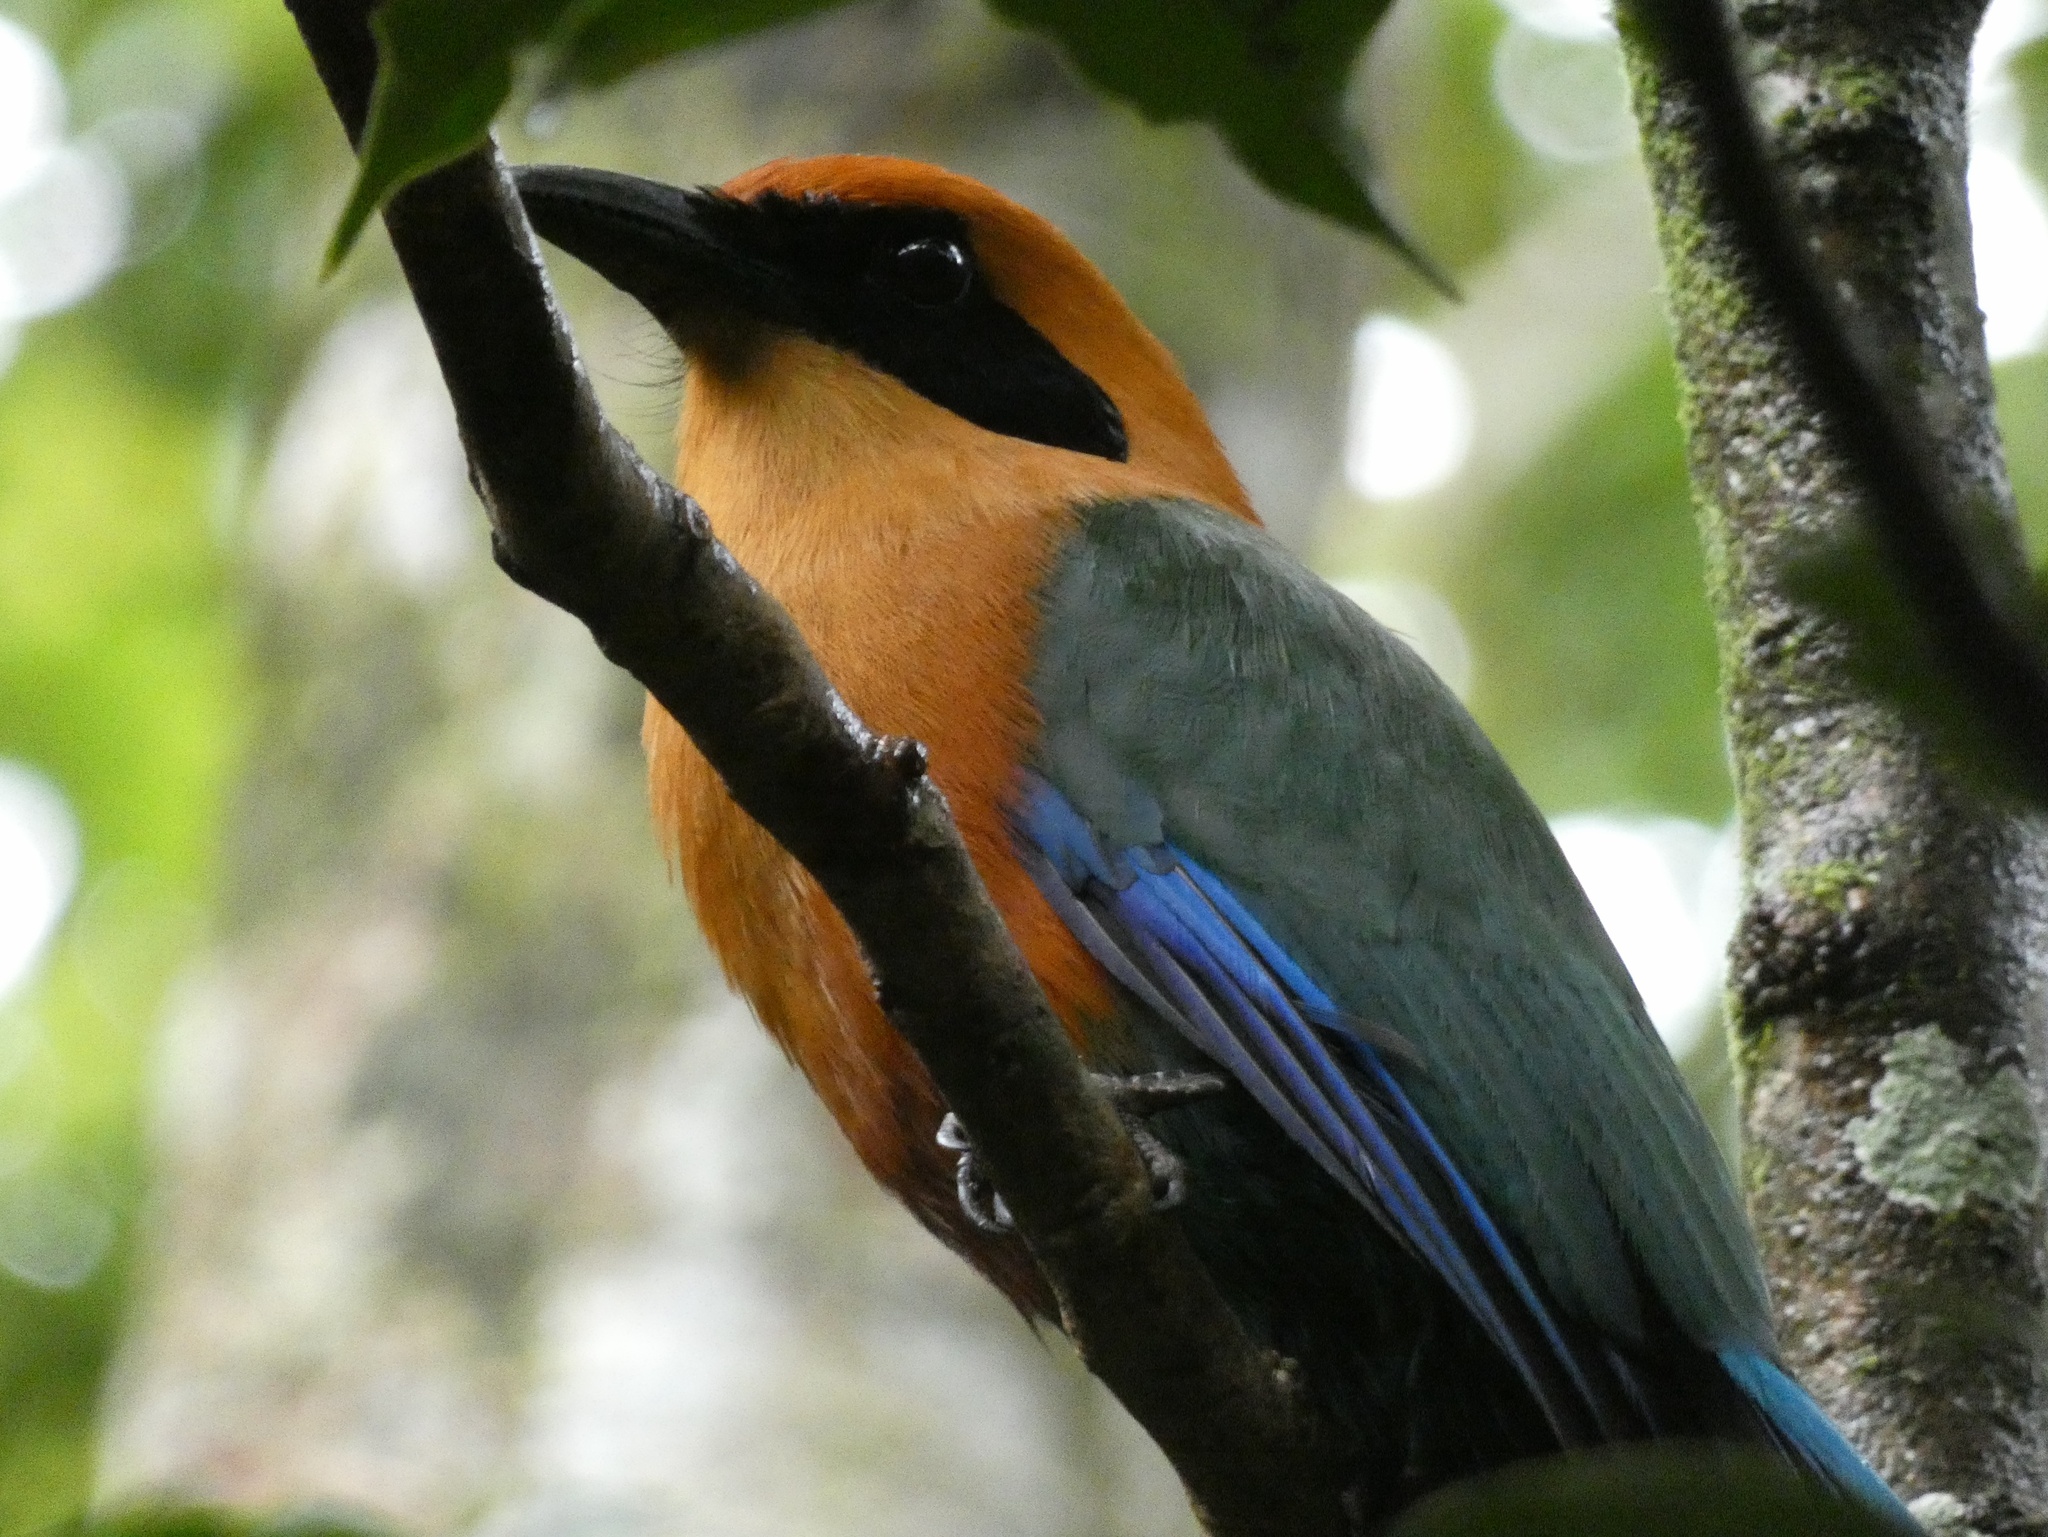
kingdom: Animalia
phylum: Chordata
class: Aves
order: Coraciiformes
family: Momotidae
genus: Baryphthengus
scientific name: Baryphthengus martii
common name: Rufous motmot
